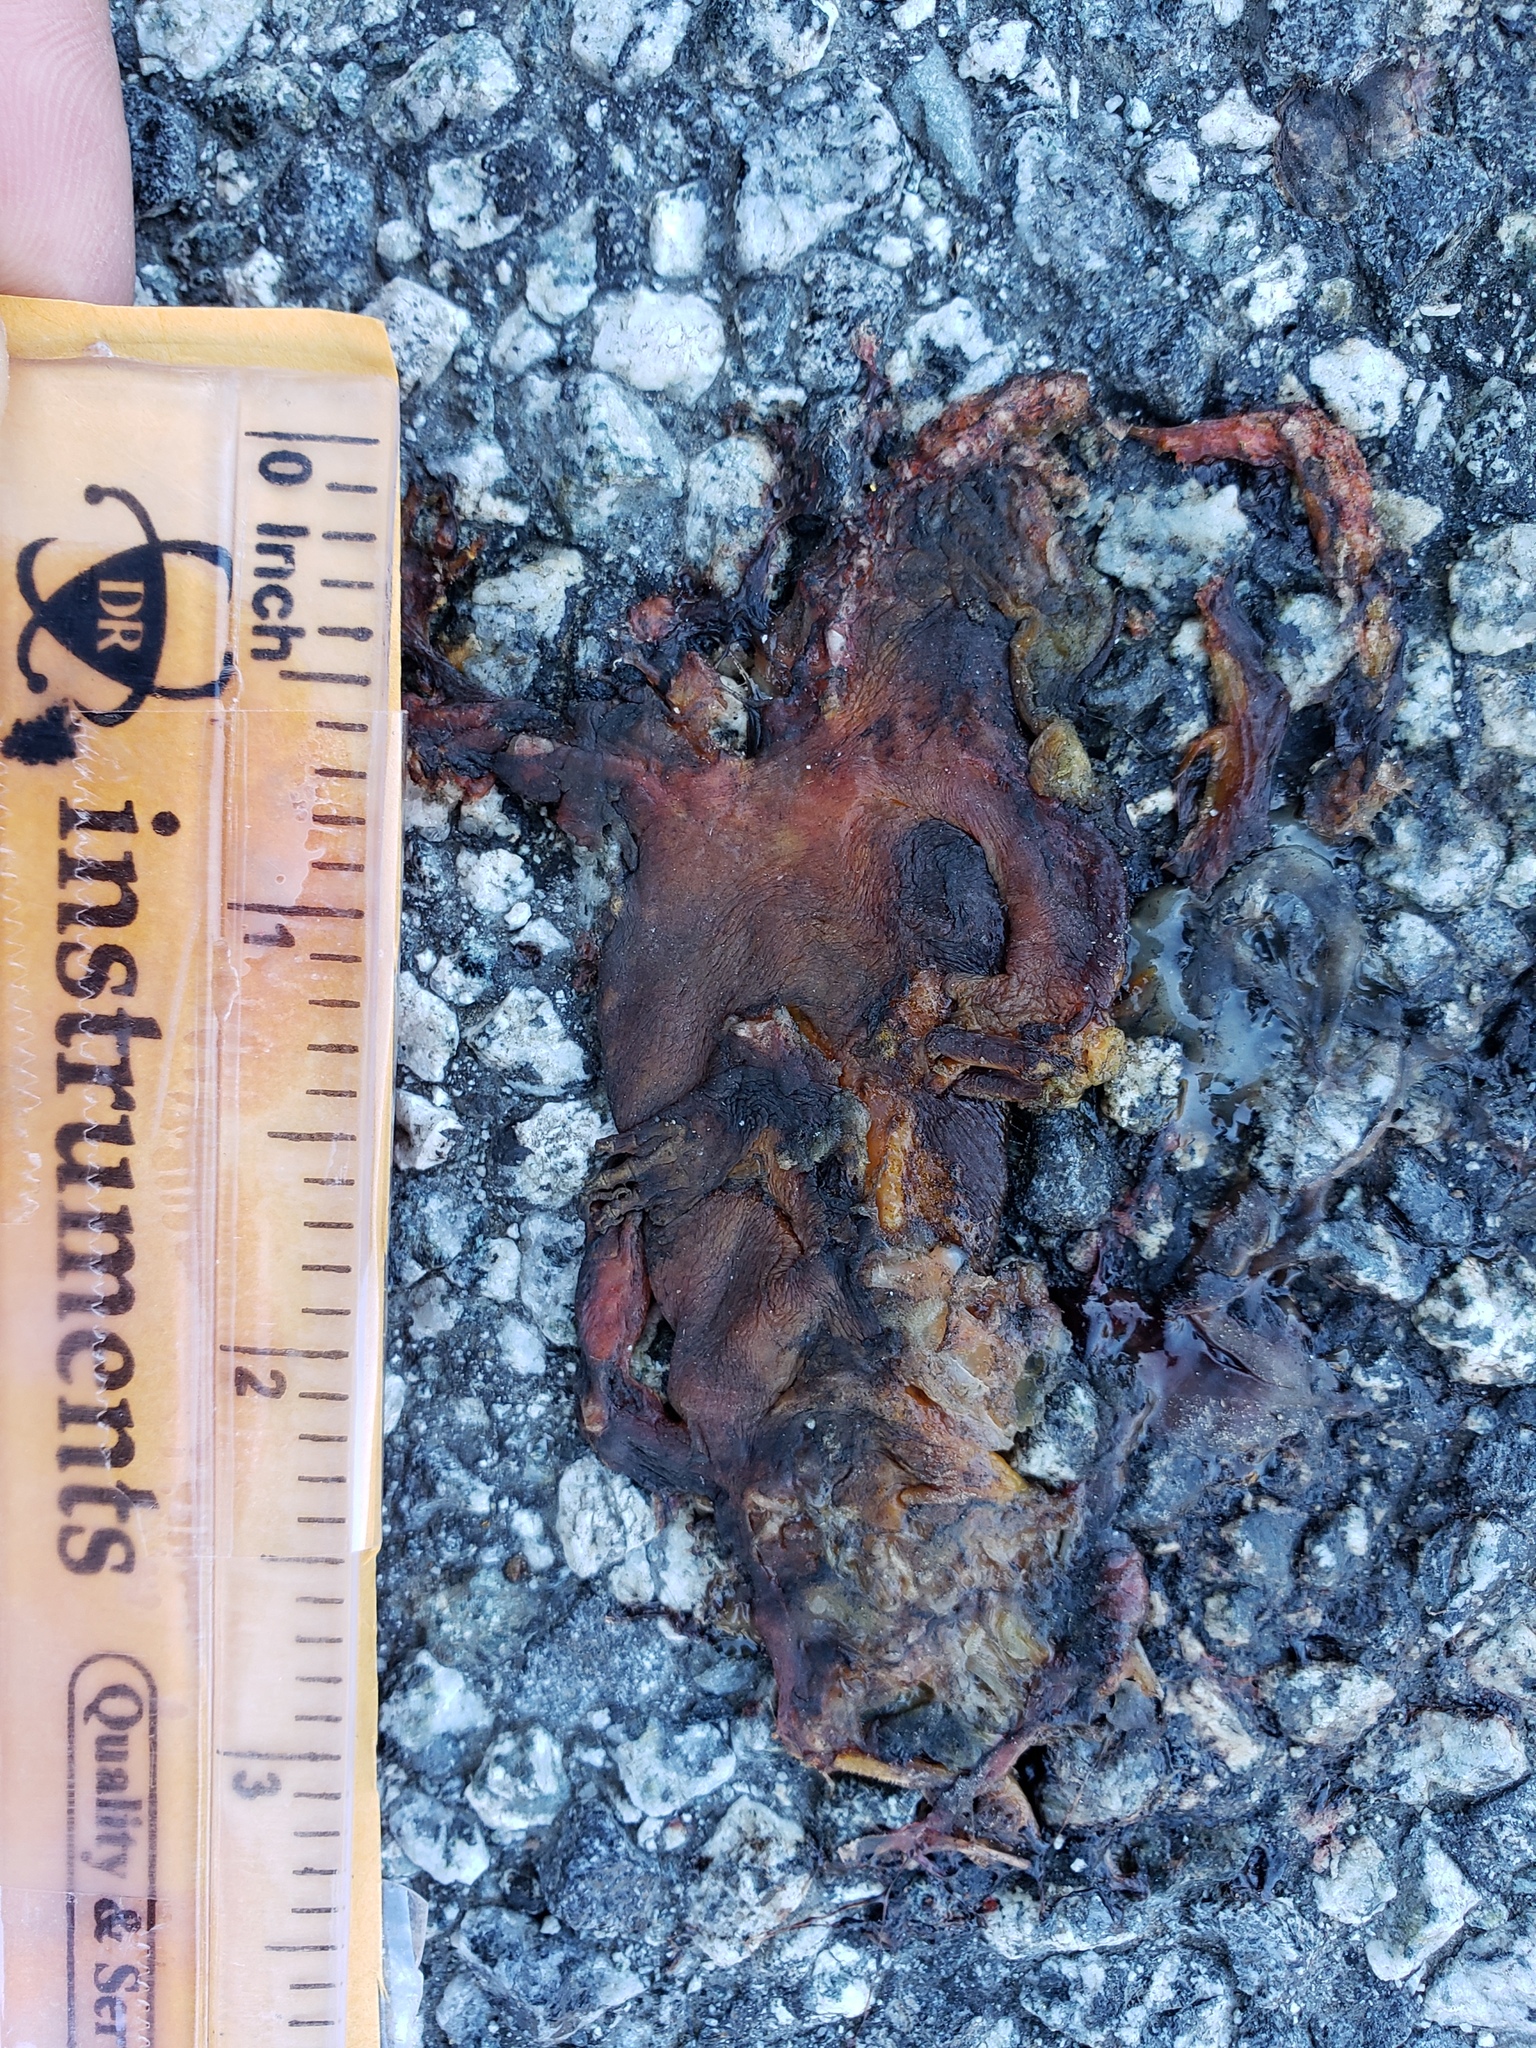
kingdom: Animalia
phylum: Chordata
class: Amphibia
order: Caudata
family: Salamandridae
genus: Taricha
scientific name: Taricha
